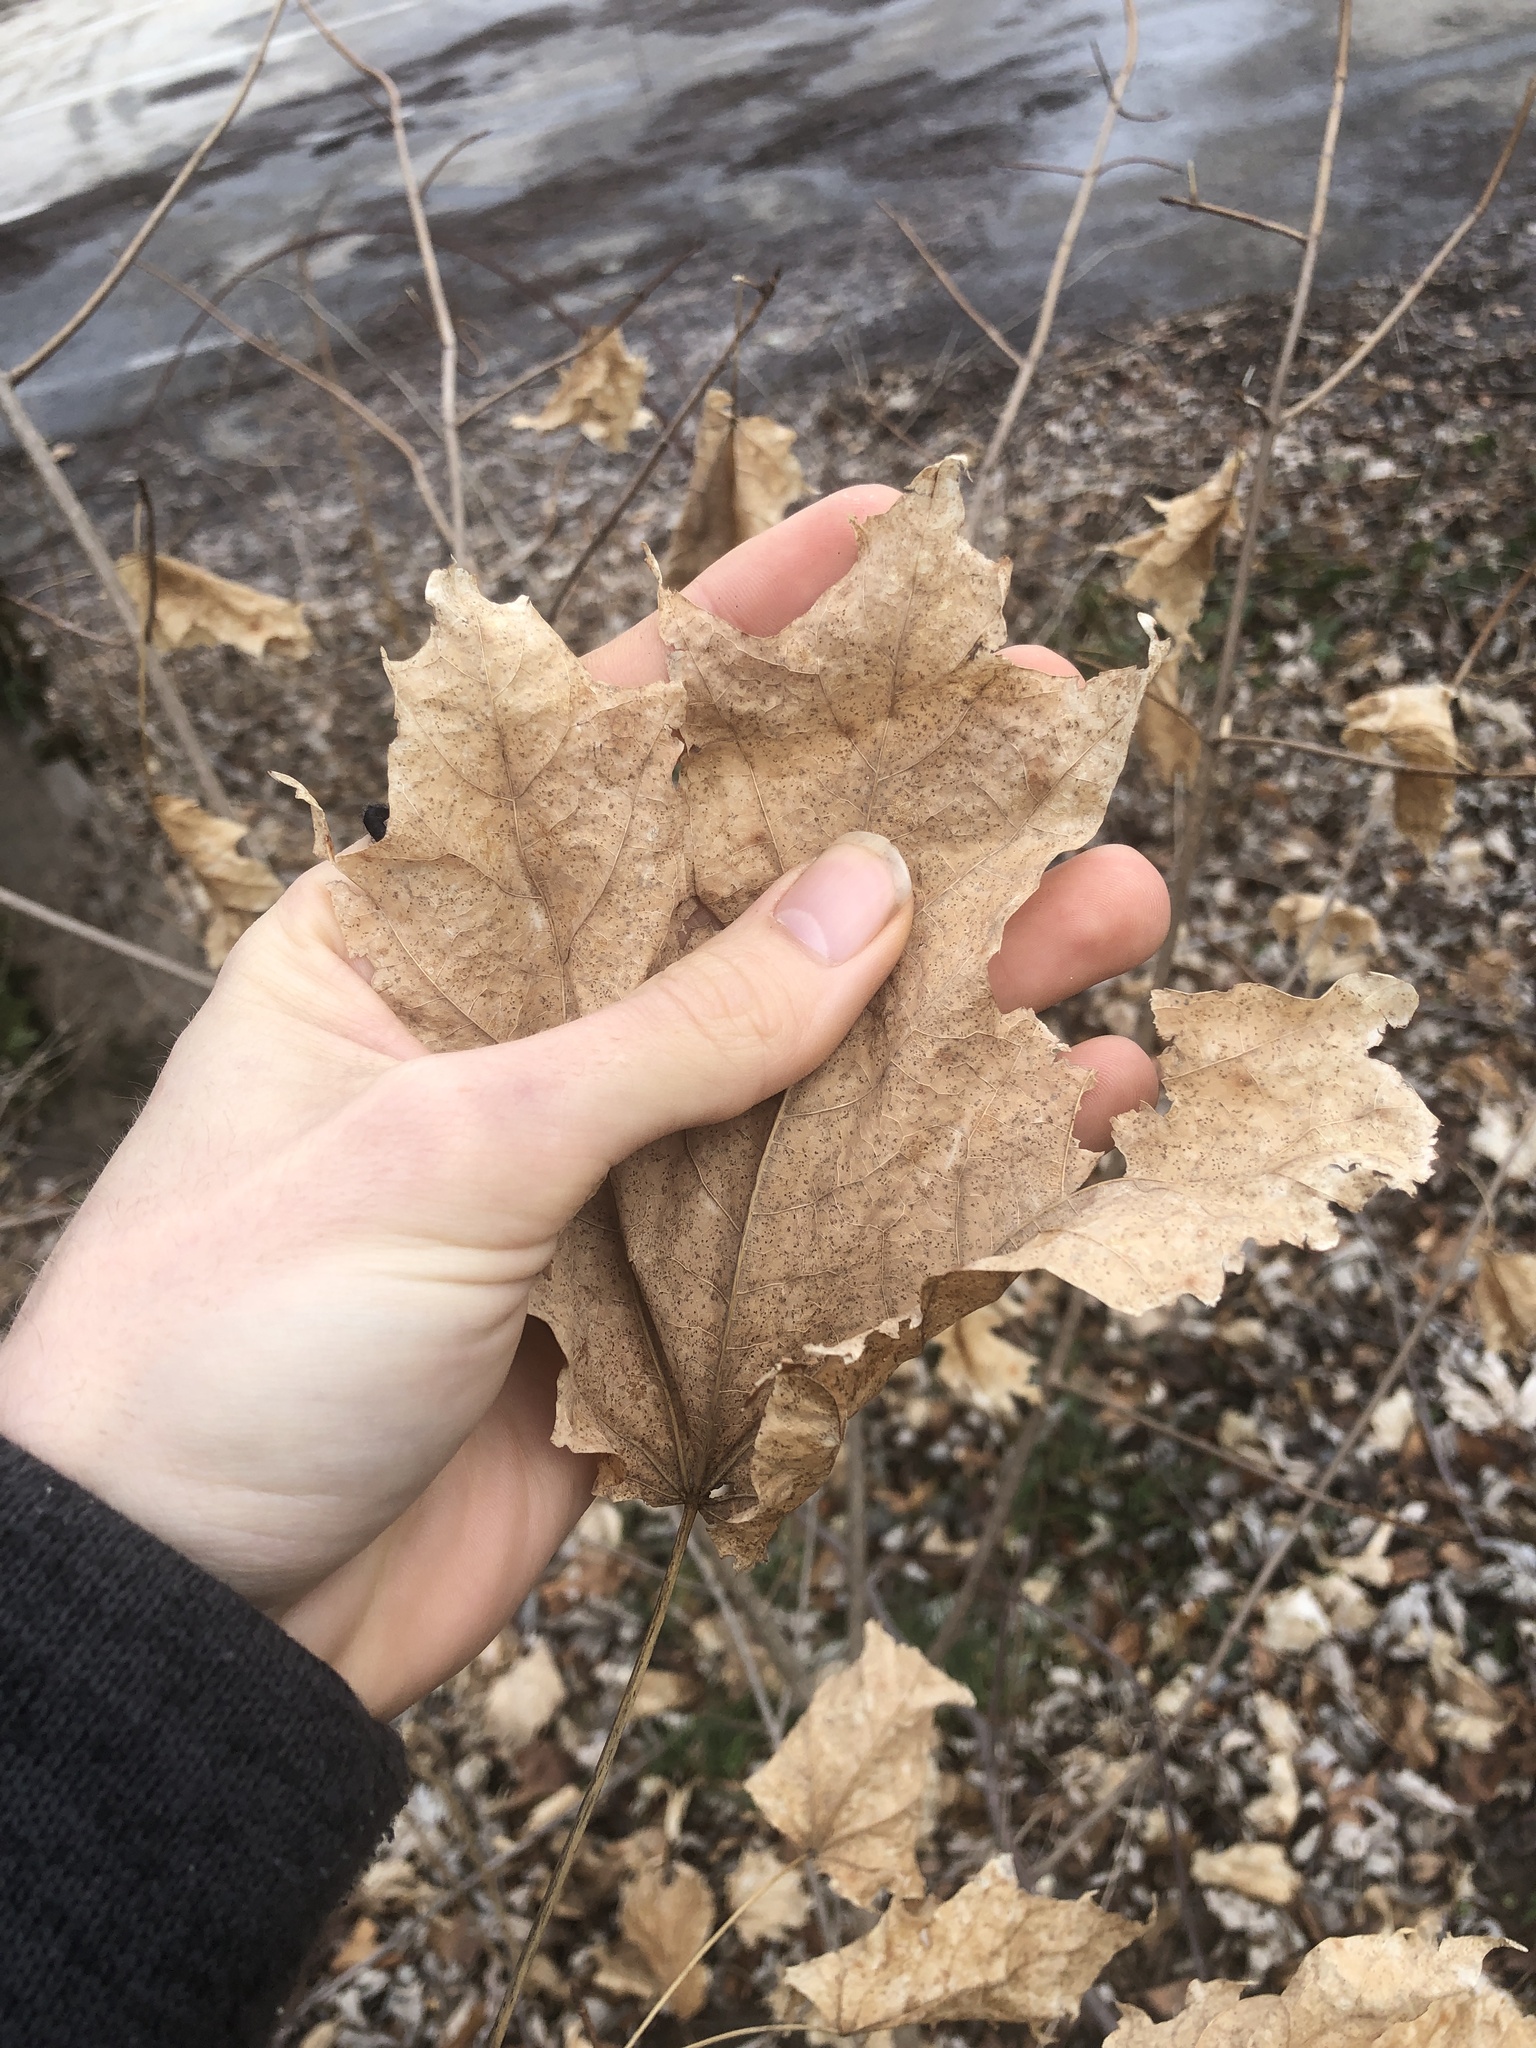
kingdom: Plantae
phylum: Tracheophyta
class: Magnoliopsida
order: Sapindales
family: Sapindaceae
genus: Acer
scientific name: Acer saccharum
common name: Sugar maple
